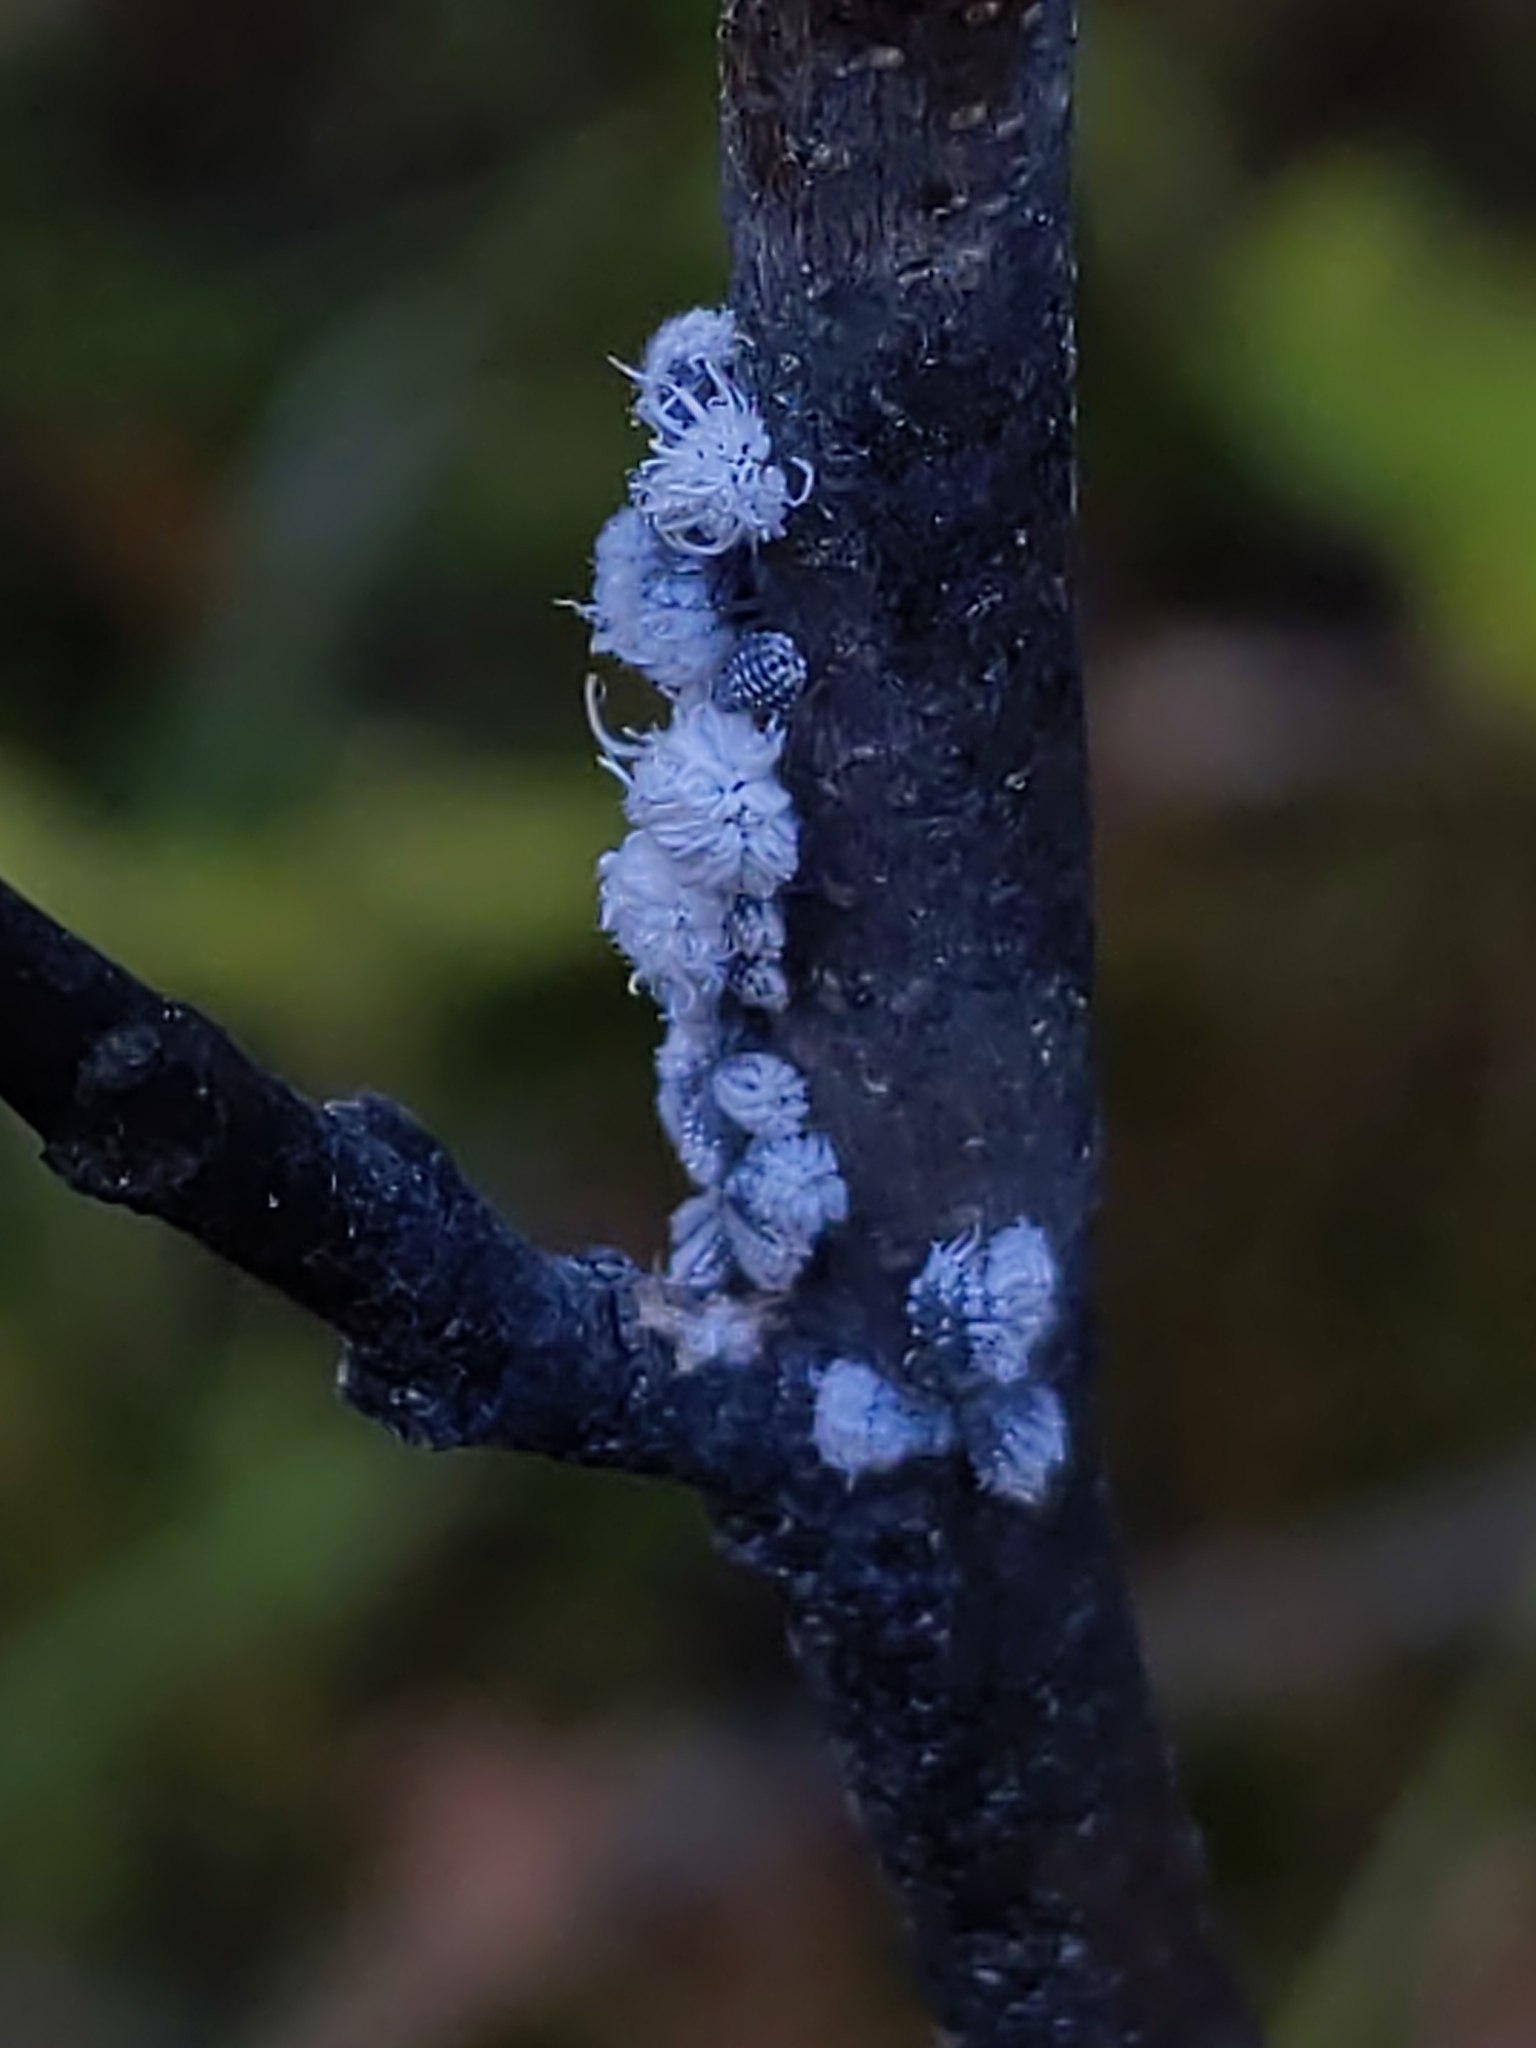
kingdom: Animalia
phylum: Arthropoda
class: Insecta
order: Hemiptera
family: Aphididae
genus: Prociphilus
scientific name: Prociphilus tessellatus
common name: Woolly alder aphid
